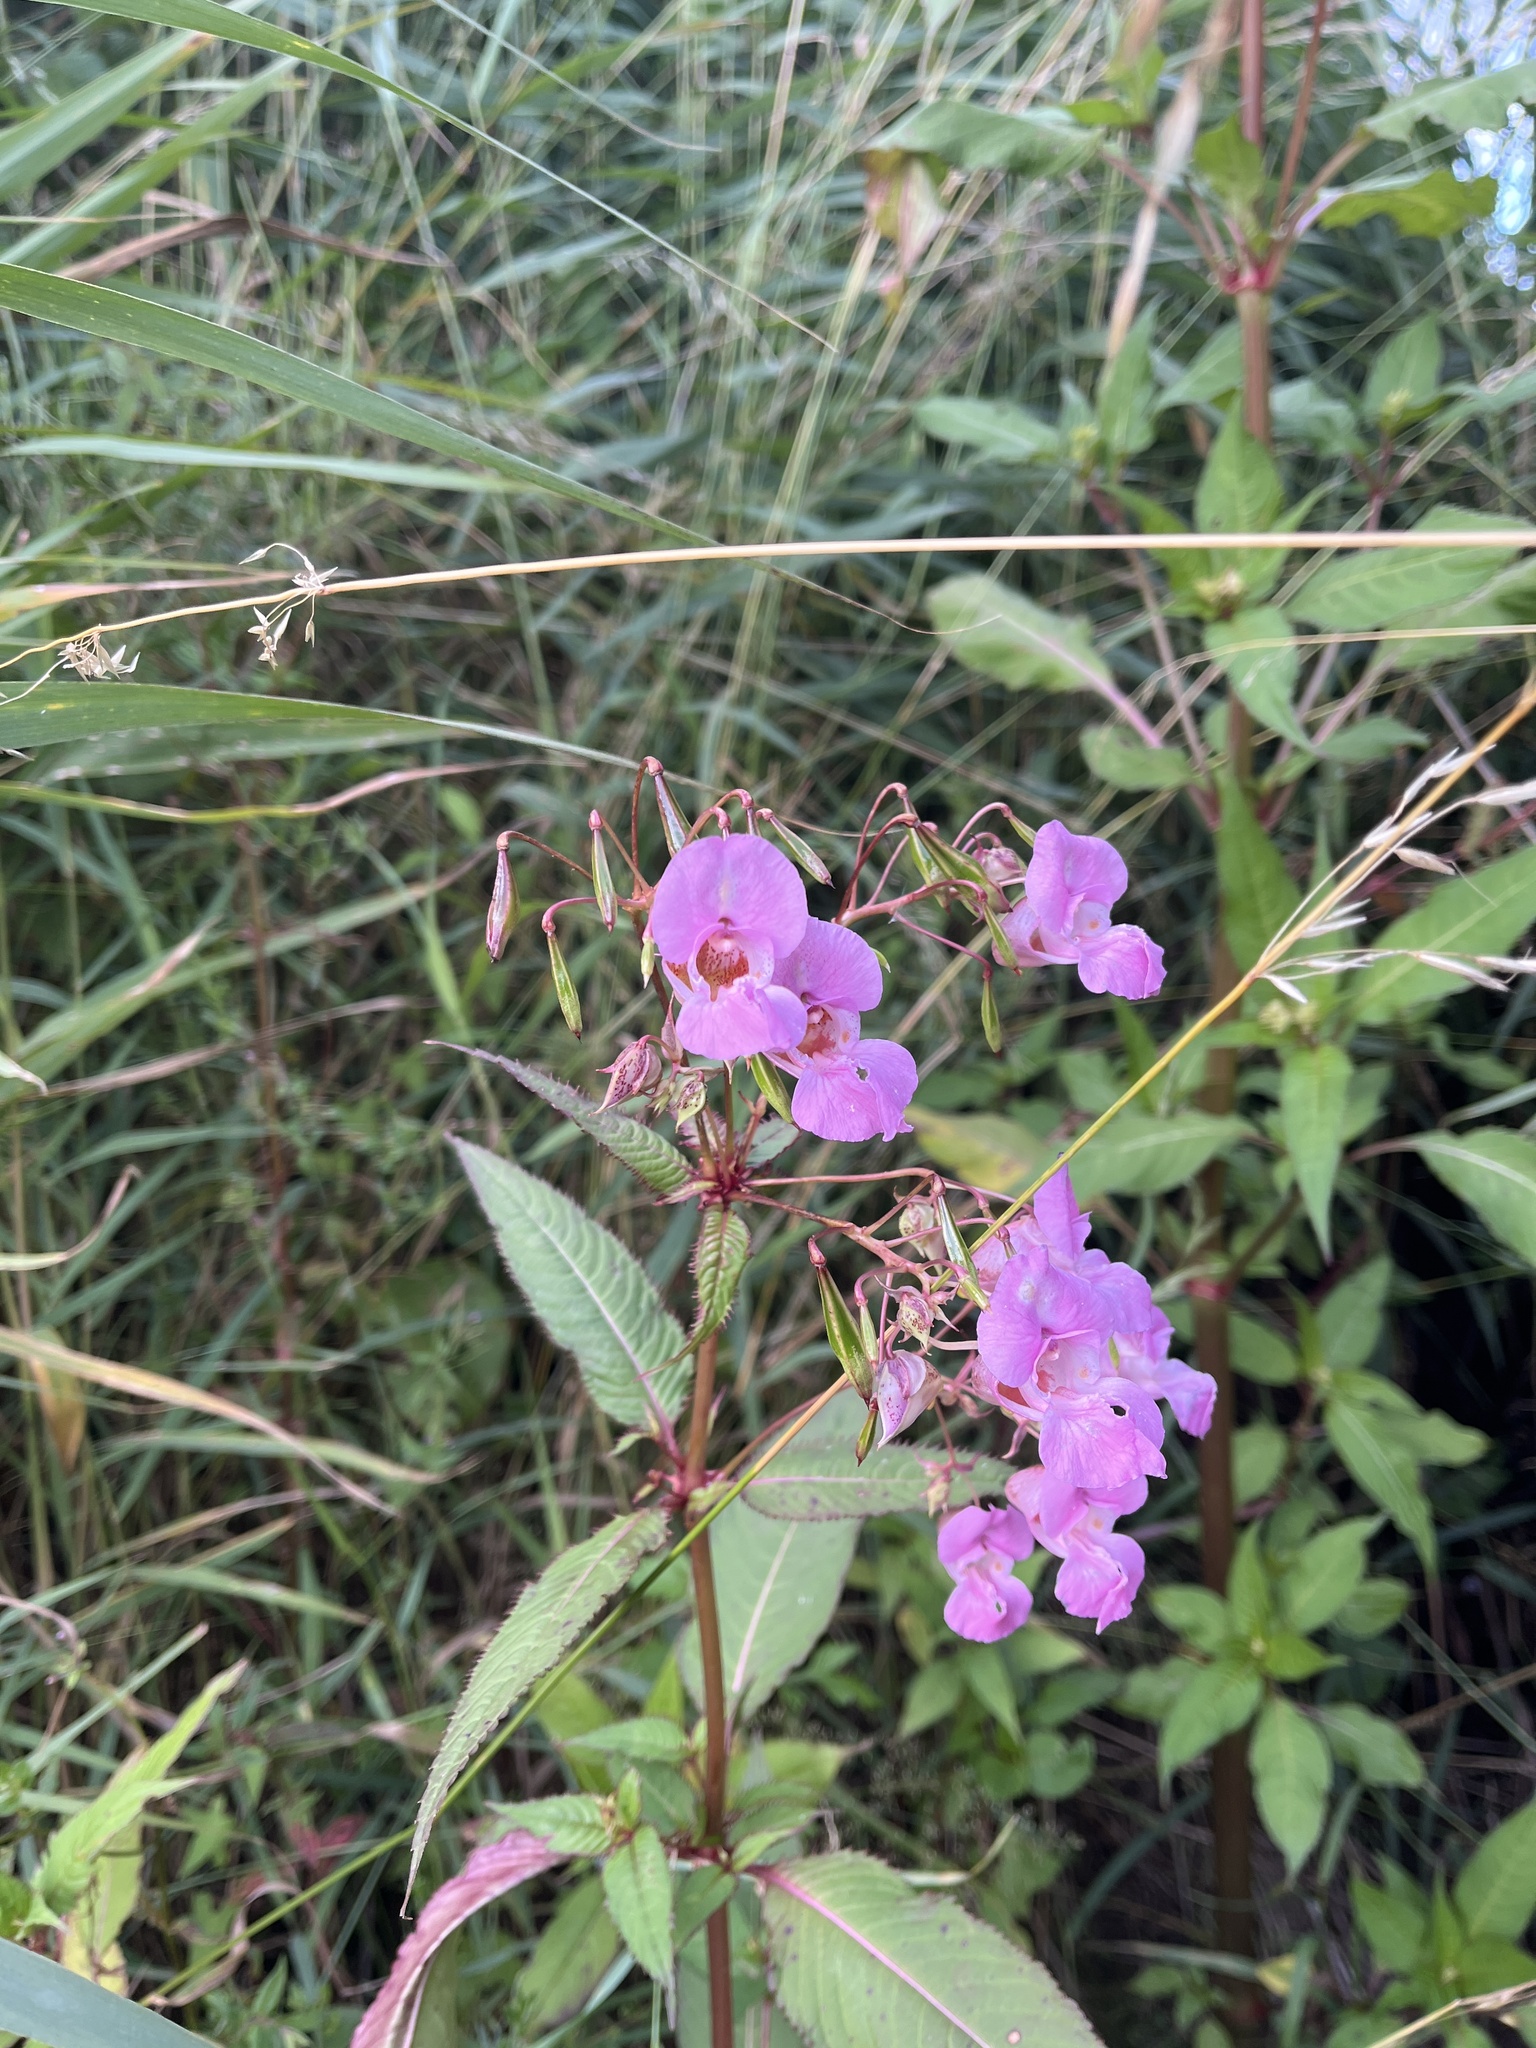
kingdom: Plantae
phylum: Tracheophyta
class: Magnoliopsida
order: Ericales
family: Balsaminaceae
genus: Impatiens
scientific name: Impatiens glandulifera
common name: Himalayan balsam
